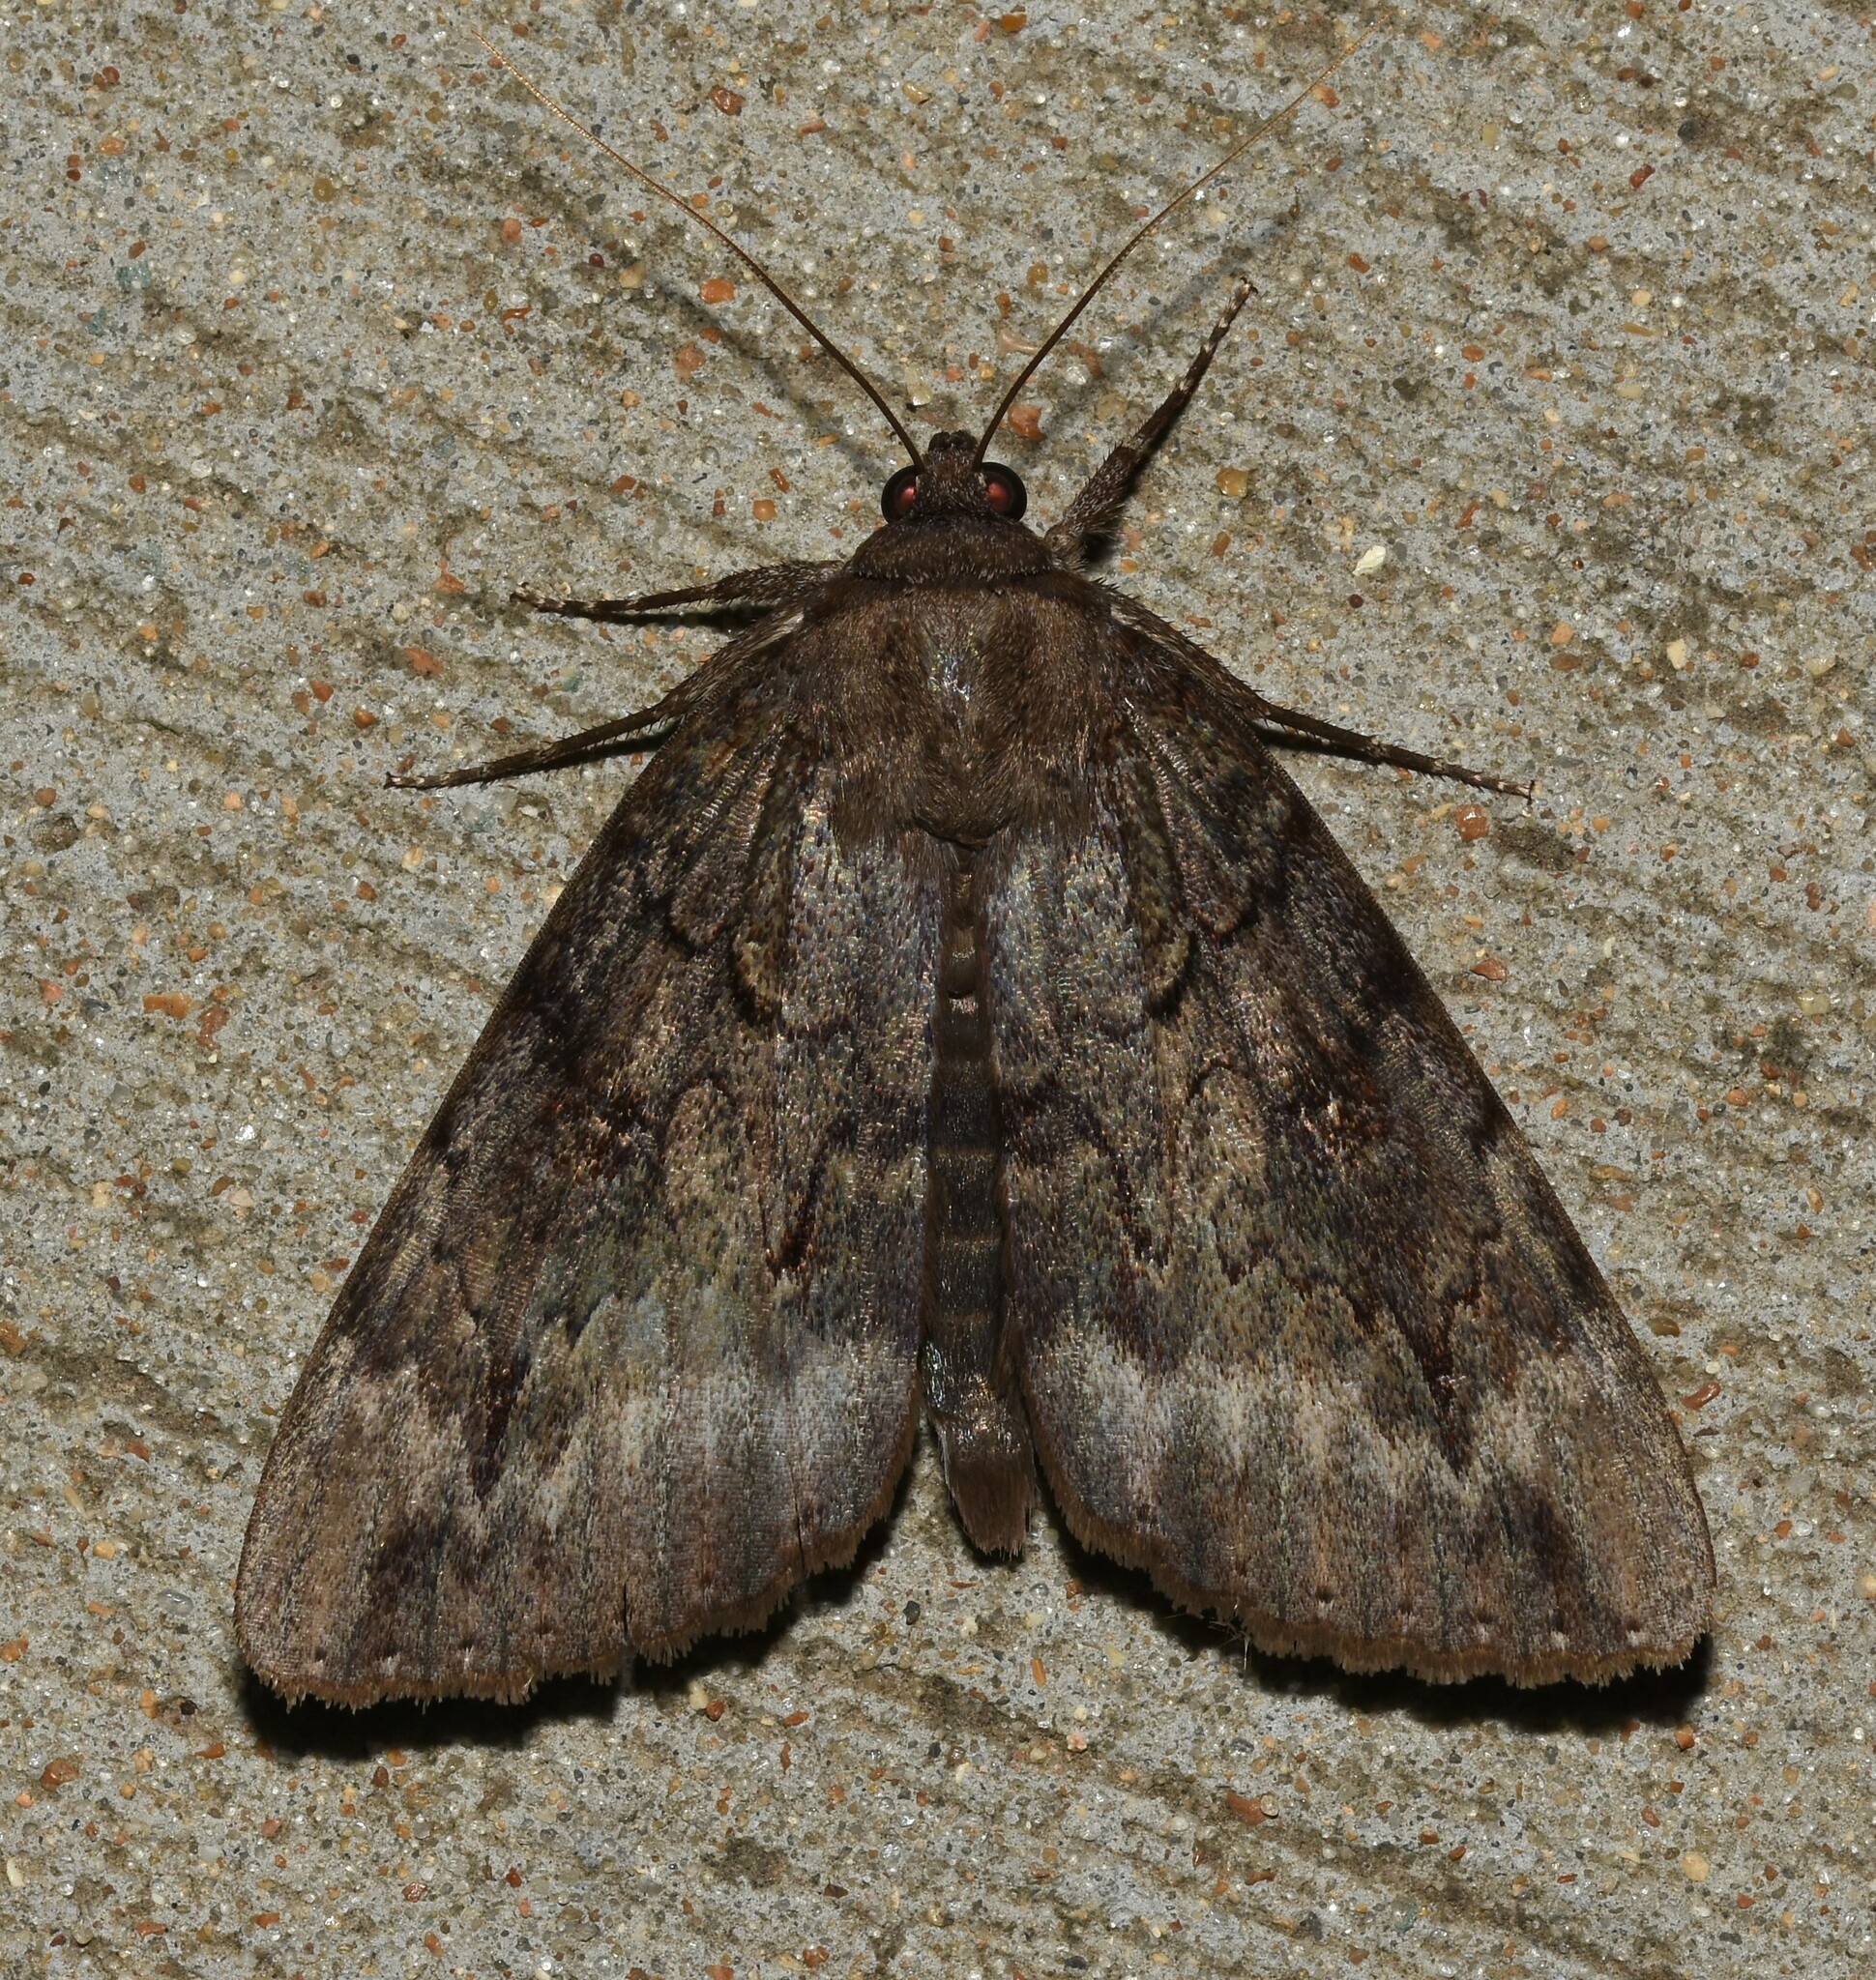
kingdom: Animalia
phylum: Arthropoda
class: Insecta
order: Lepidoptera
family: Erebidae
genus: Catocala
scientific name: Catocala residua
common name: Residua underwing
